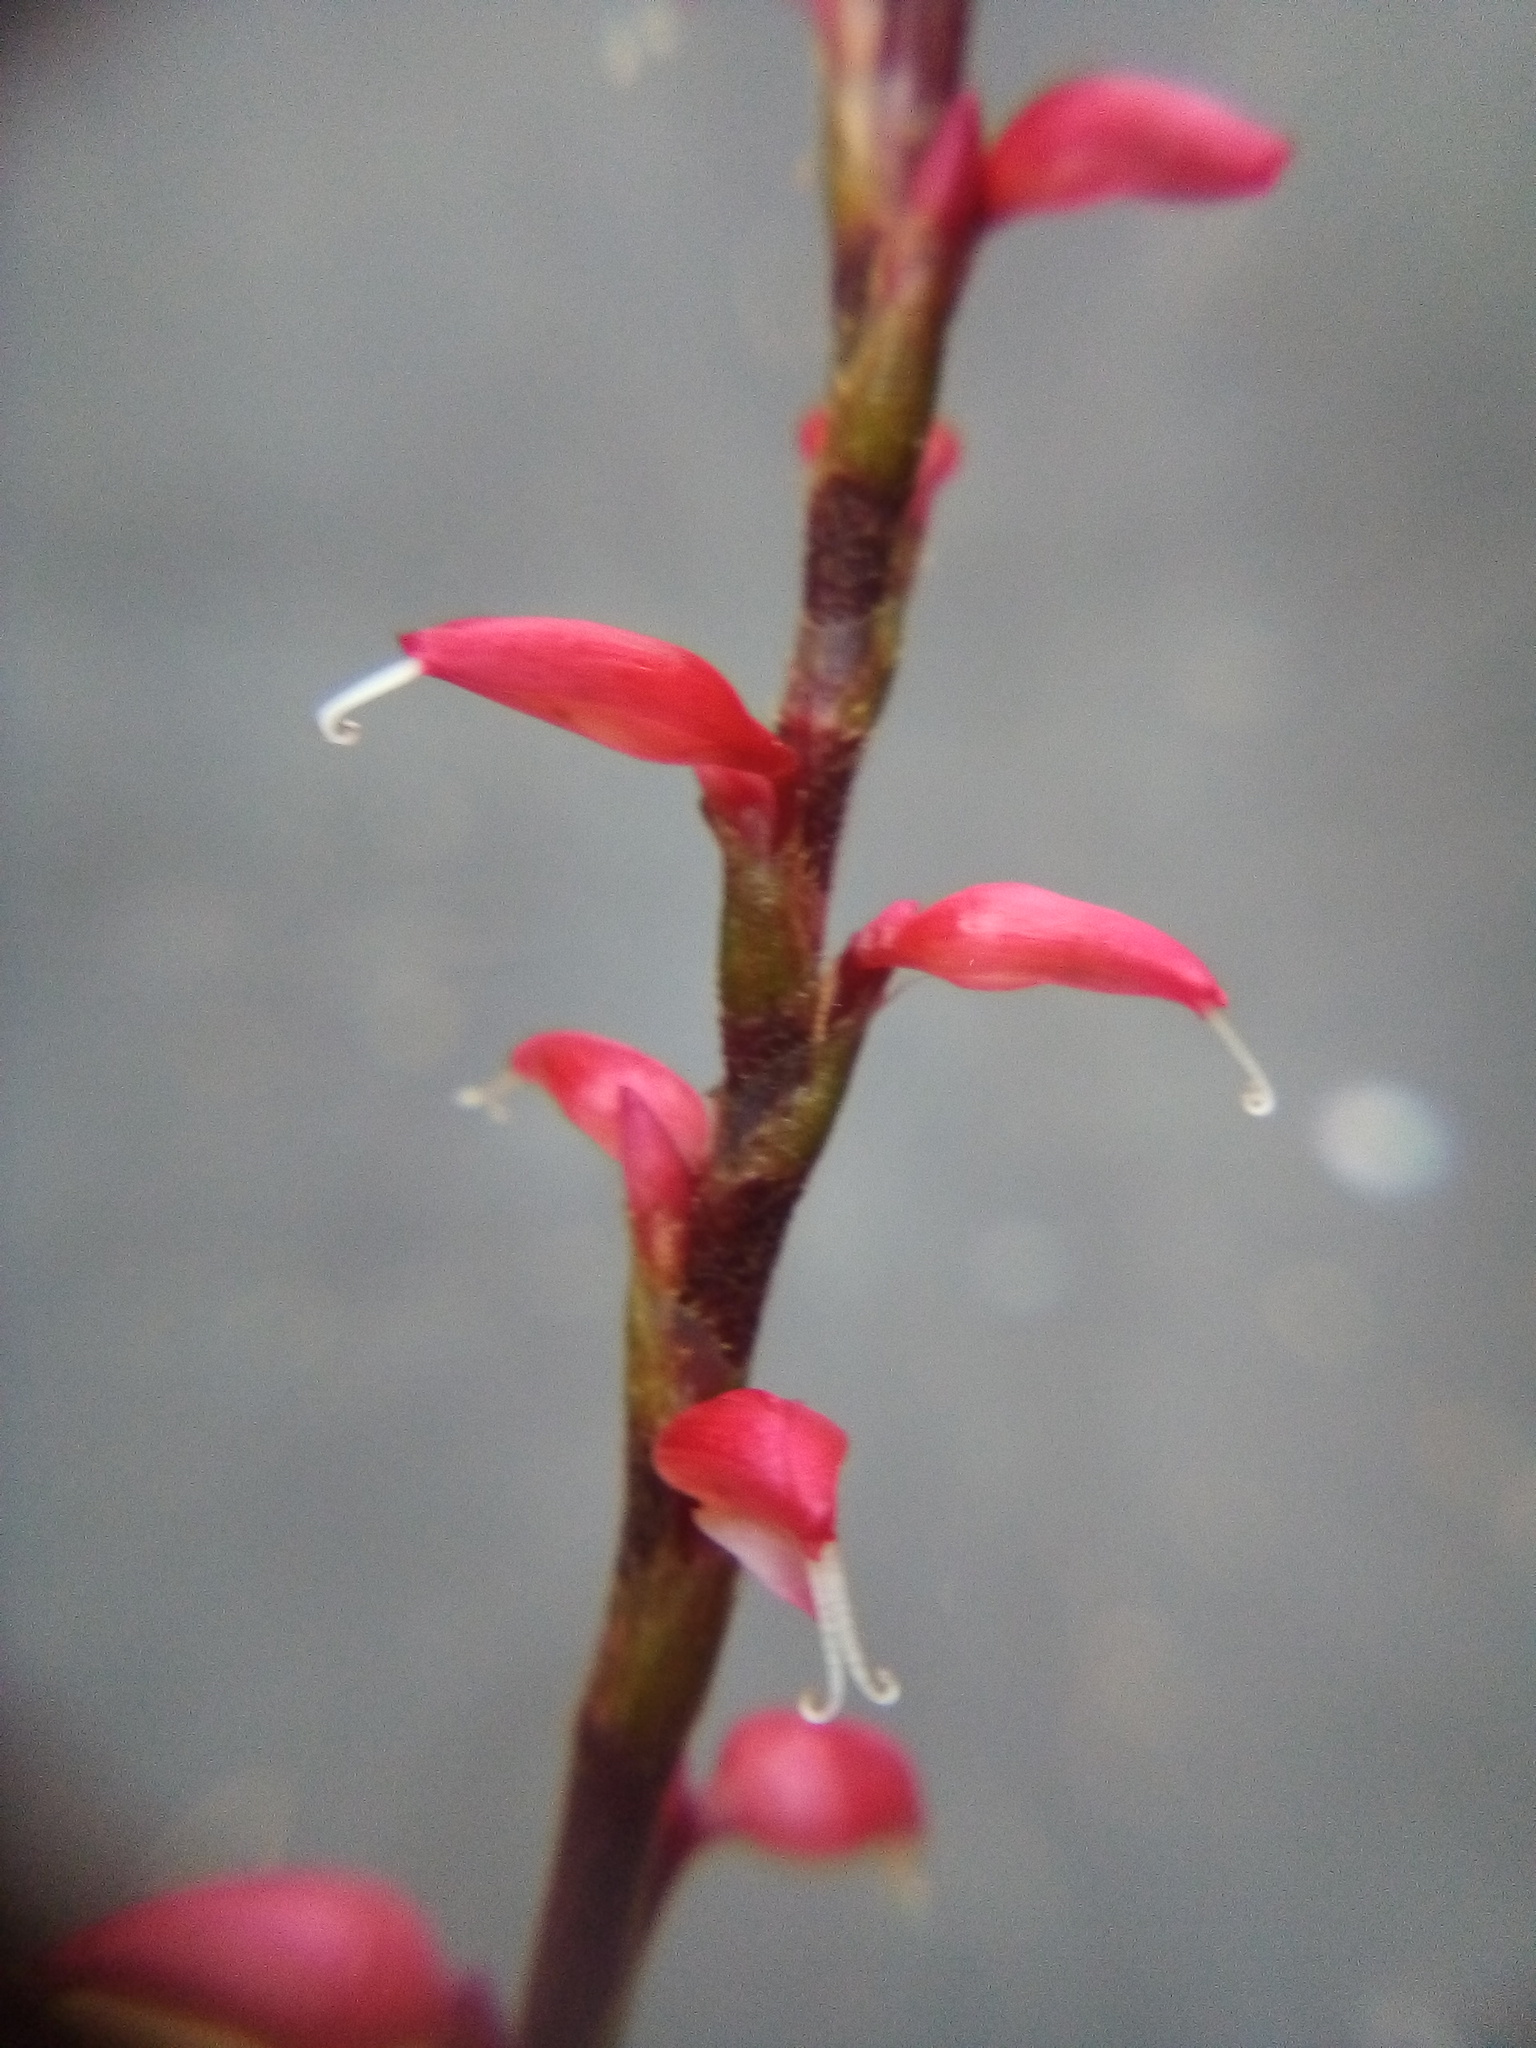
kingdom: Plantae
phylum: Tracheophyta
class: Magnoliopsida
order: Caryophyllales
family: Polygonaceae
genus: Persicaria
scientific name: Persicaria filiformis
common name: Asian jumpseed
